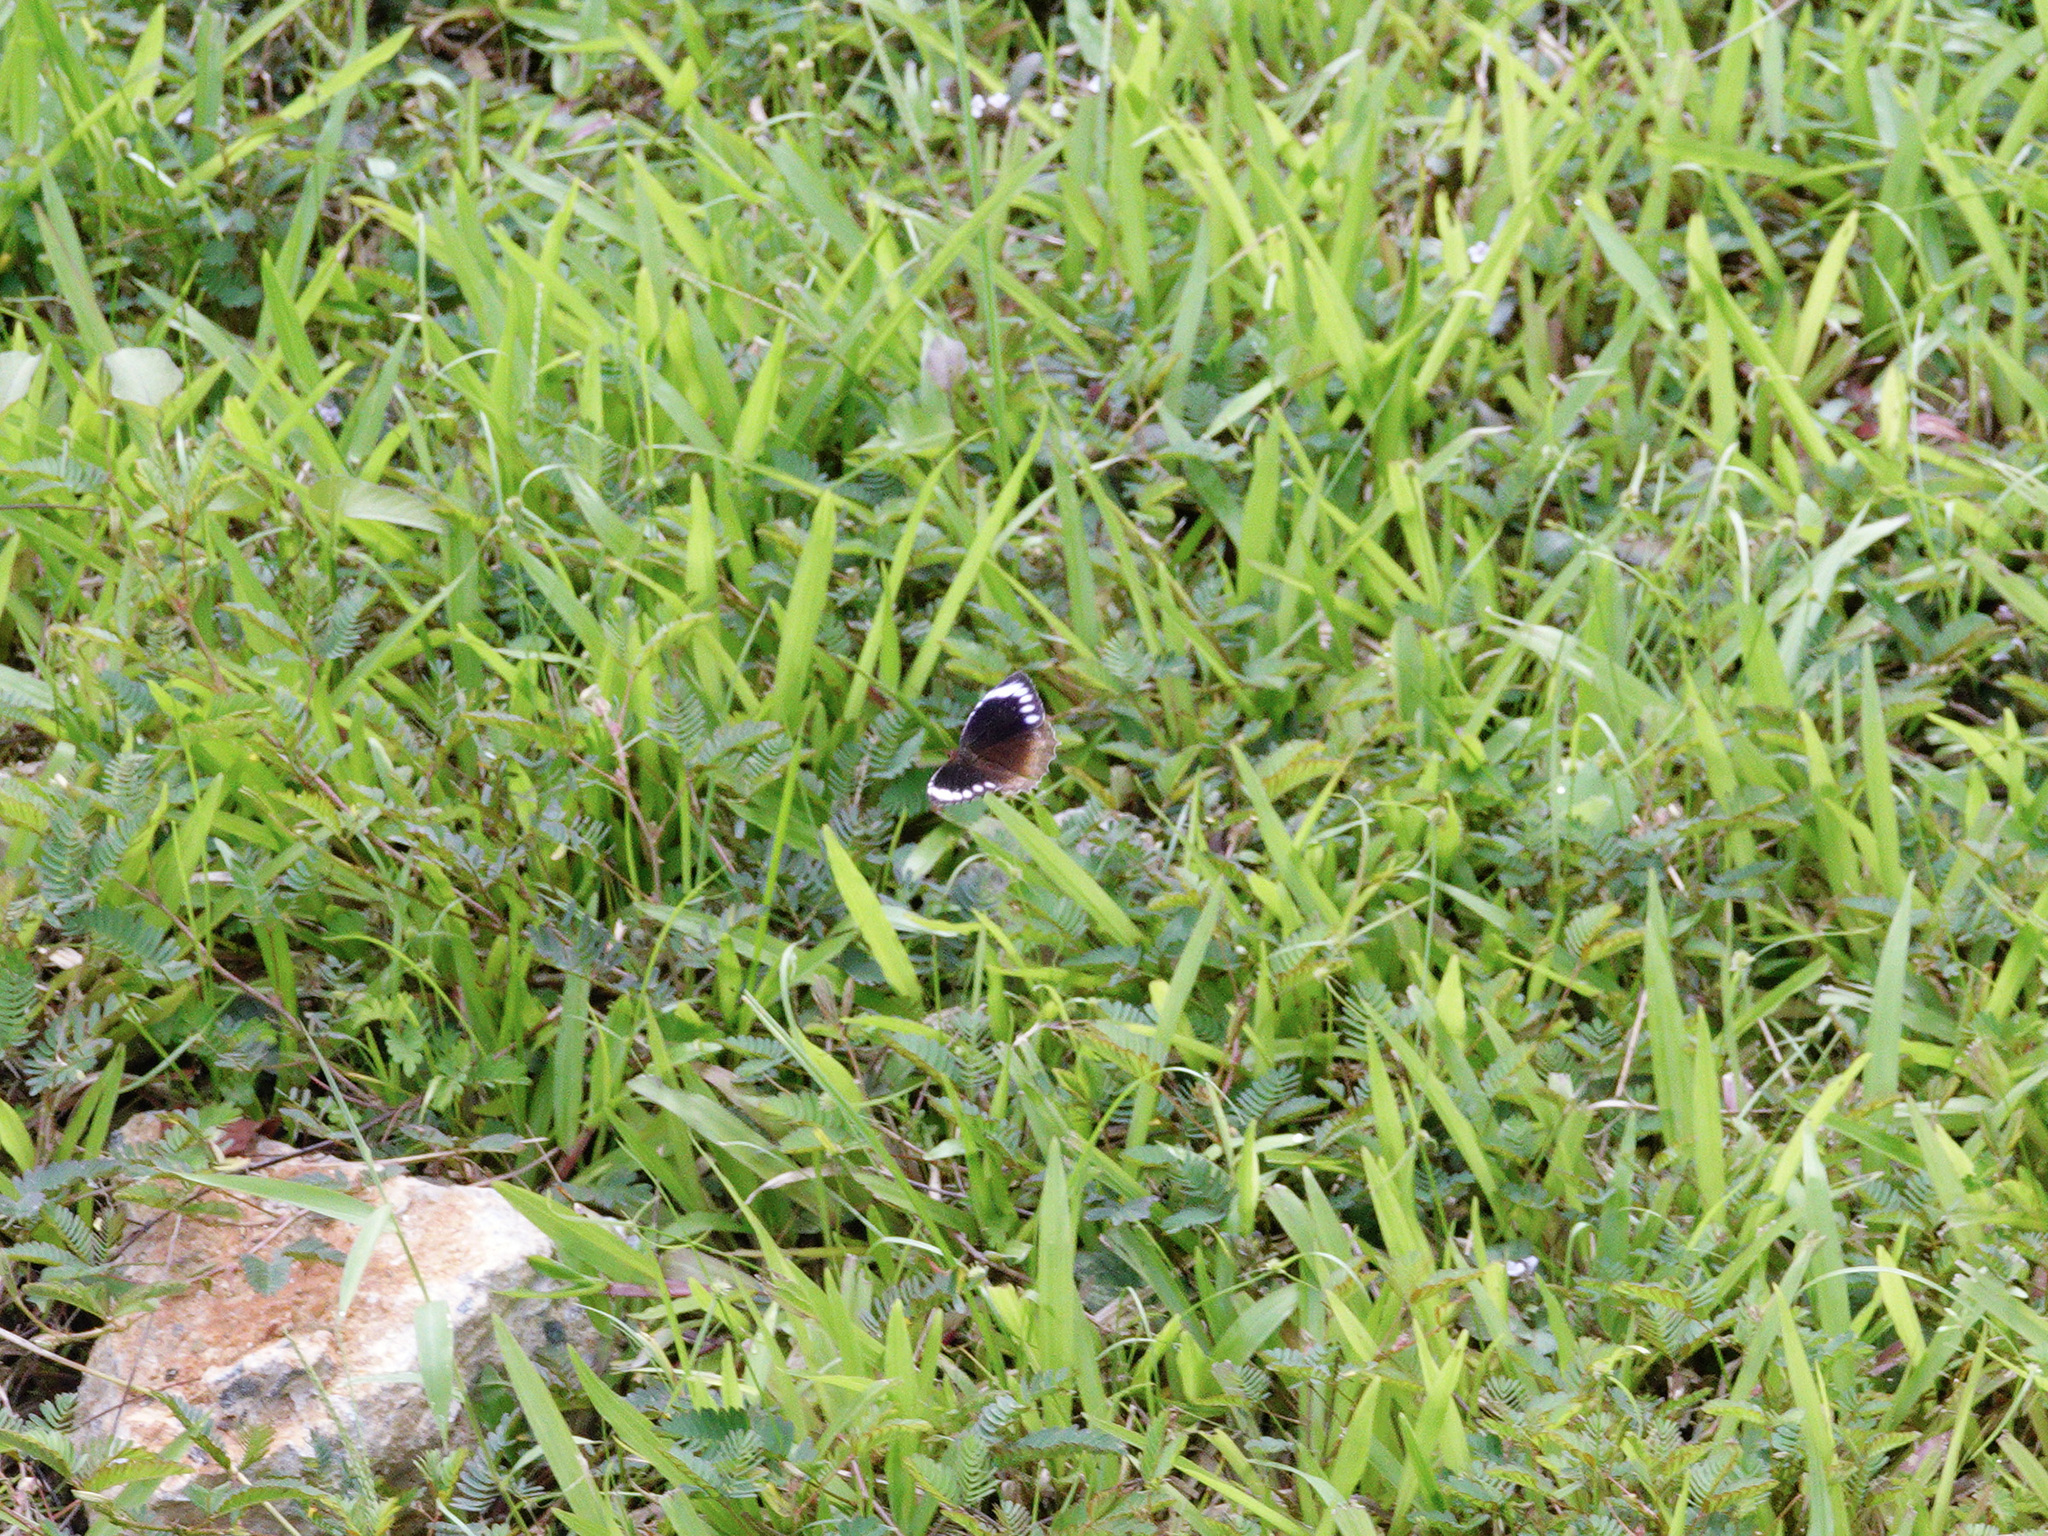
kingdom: Animalia
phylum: Arthropoda
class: Insecta
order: Lepidoptera
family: Nymphalidae
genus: Elymnias
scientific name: Elymnias hypermnestra
